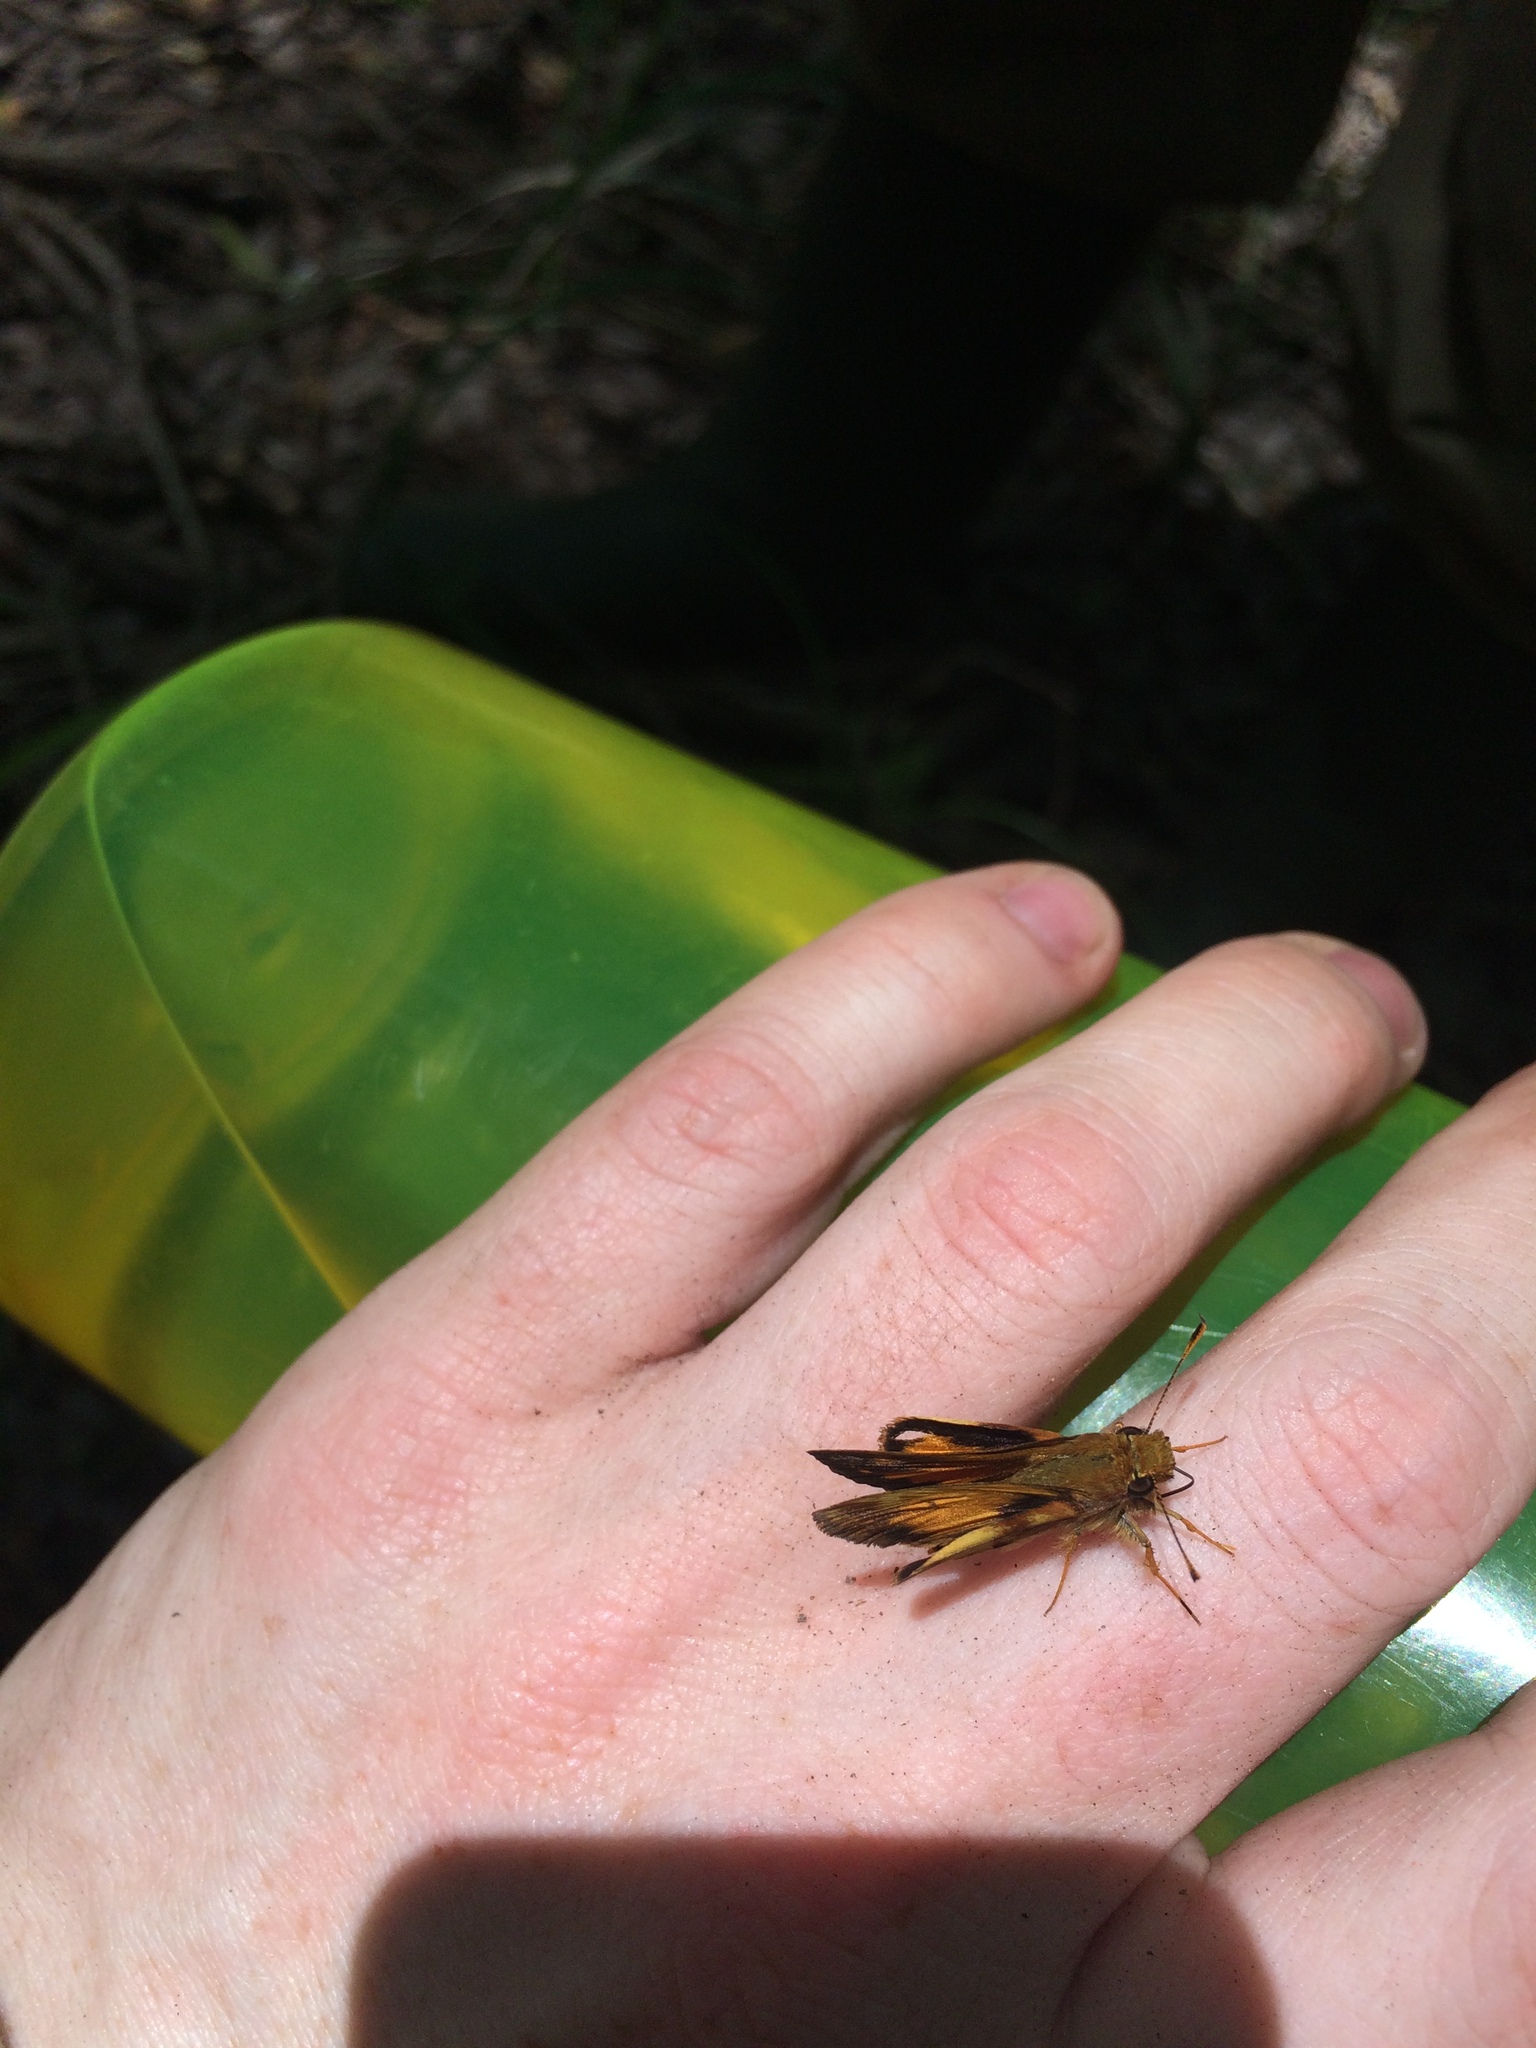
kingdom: Animalia
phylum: Arthropoda
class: Insecta
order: Lepidoptera
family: Hesperiidae
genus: Lon
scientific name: Lon zabulon
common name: Zabulon skipper
